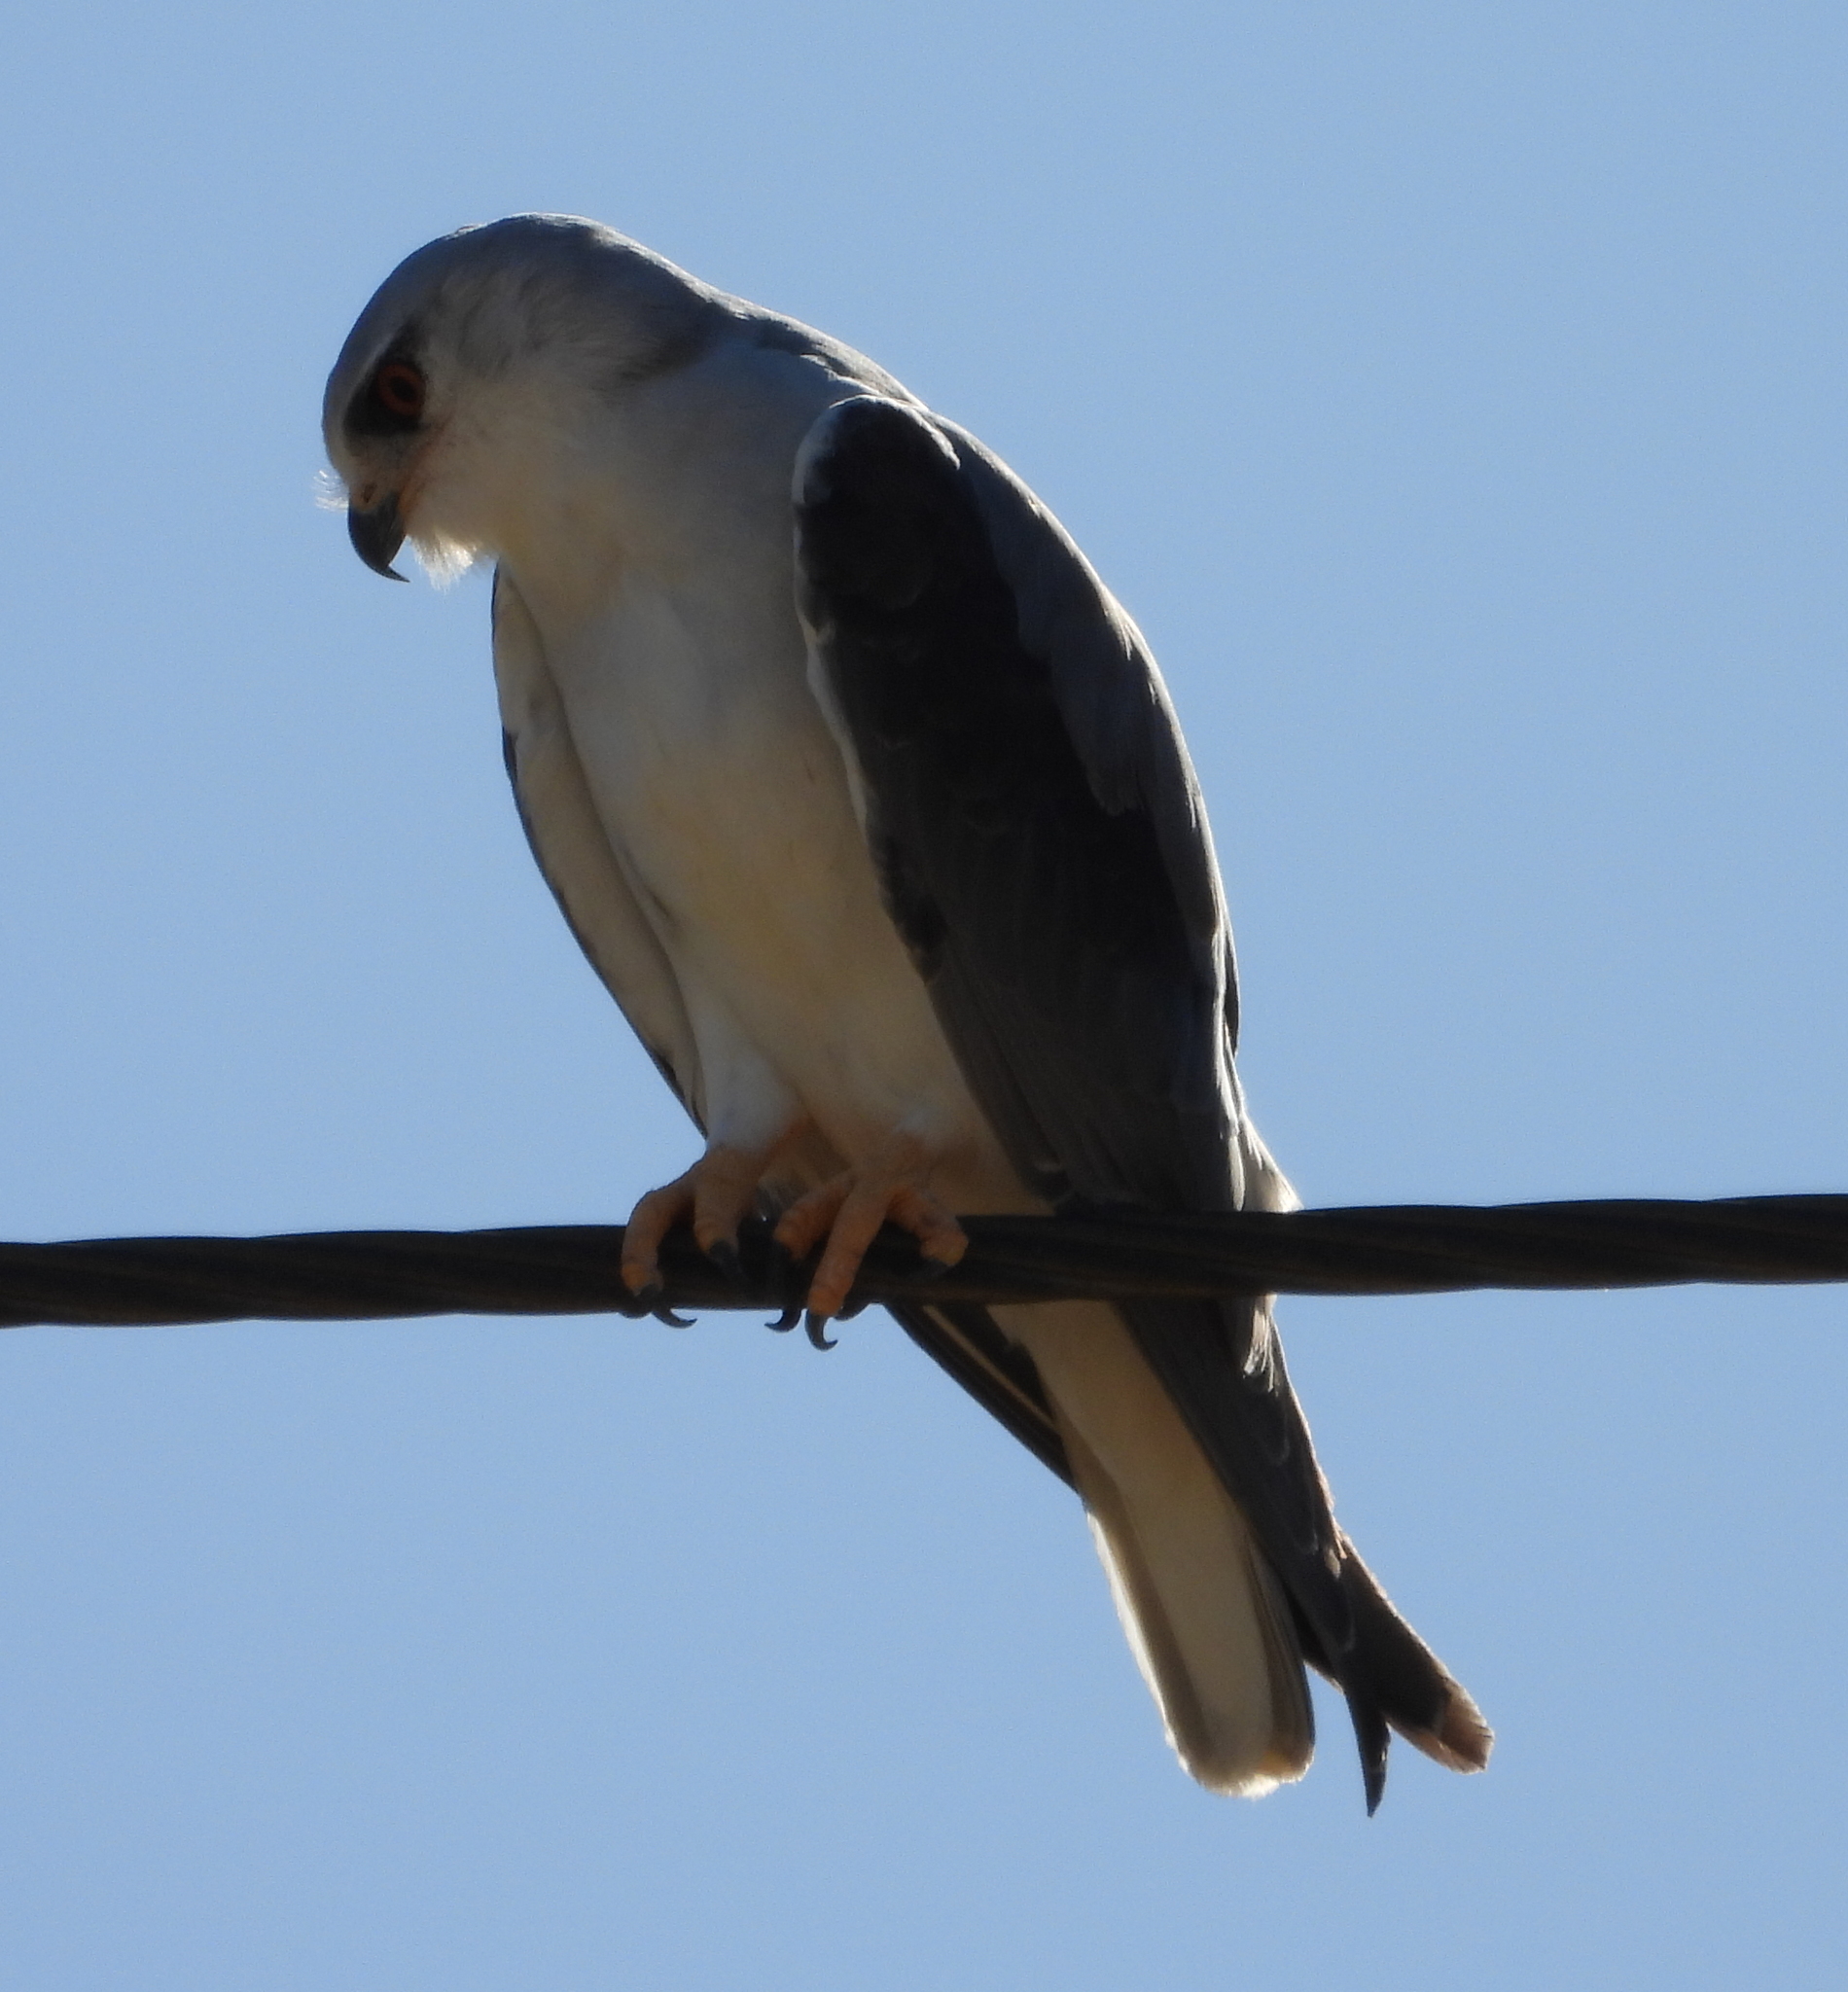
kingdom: Animalia
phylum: Chordata
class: Aves
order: Accipitriformes
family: Accipitridae
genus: Elanus
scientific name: Elanus caeruleus
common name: Black-winged kite
